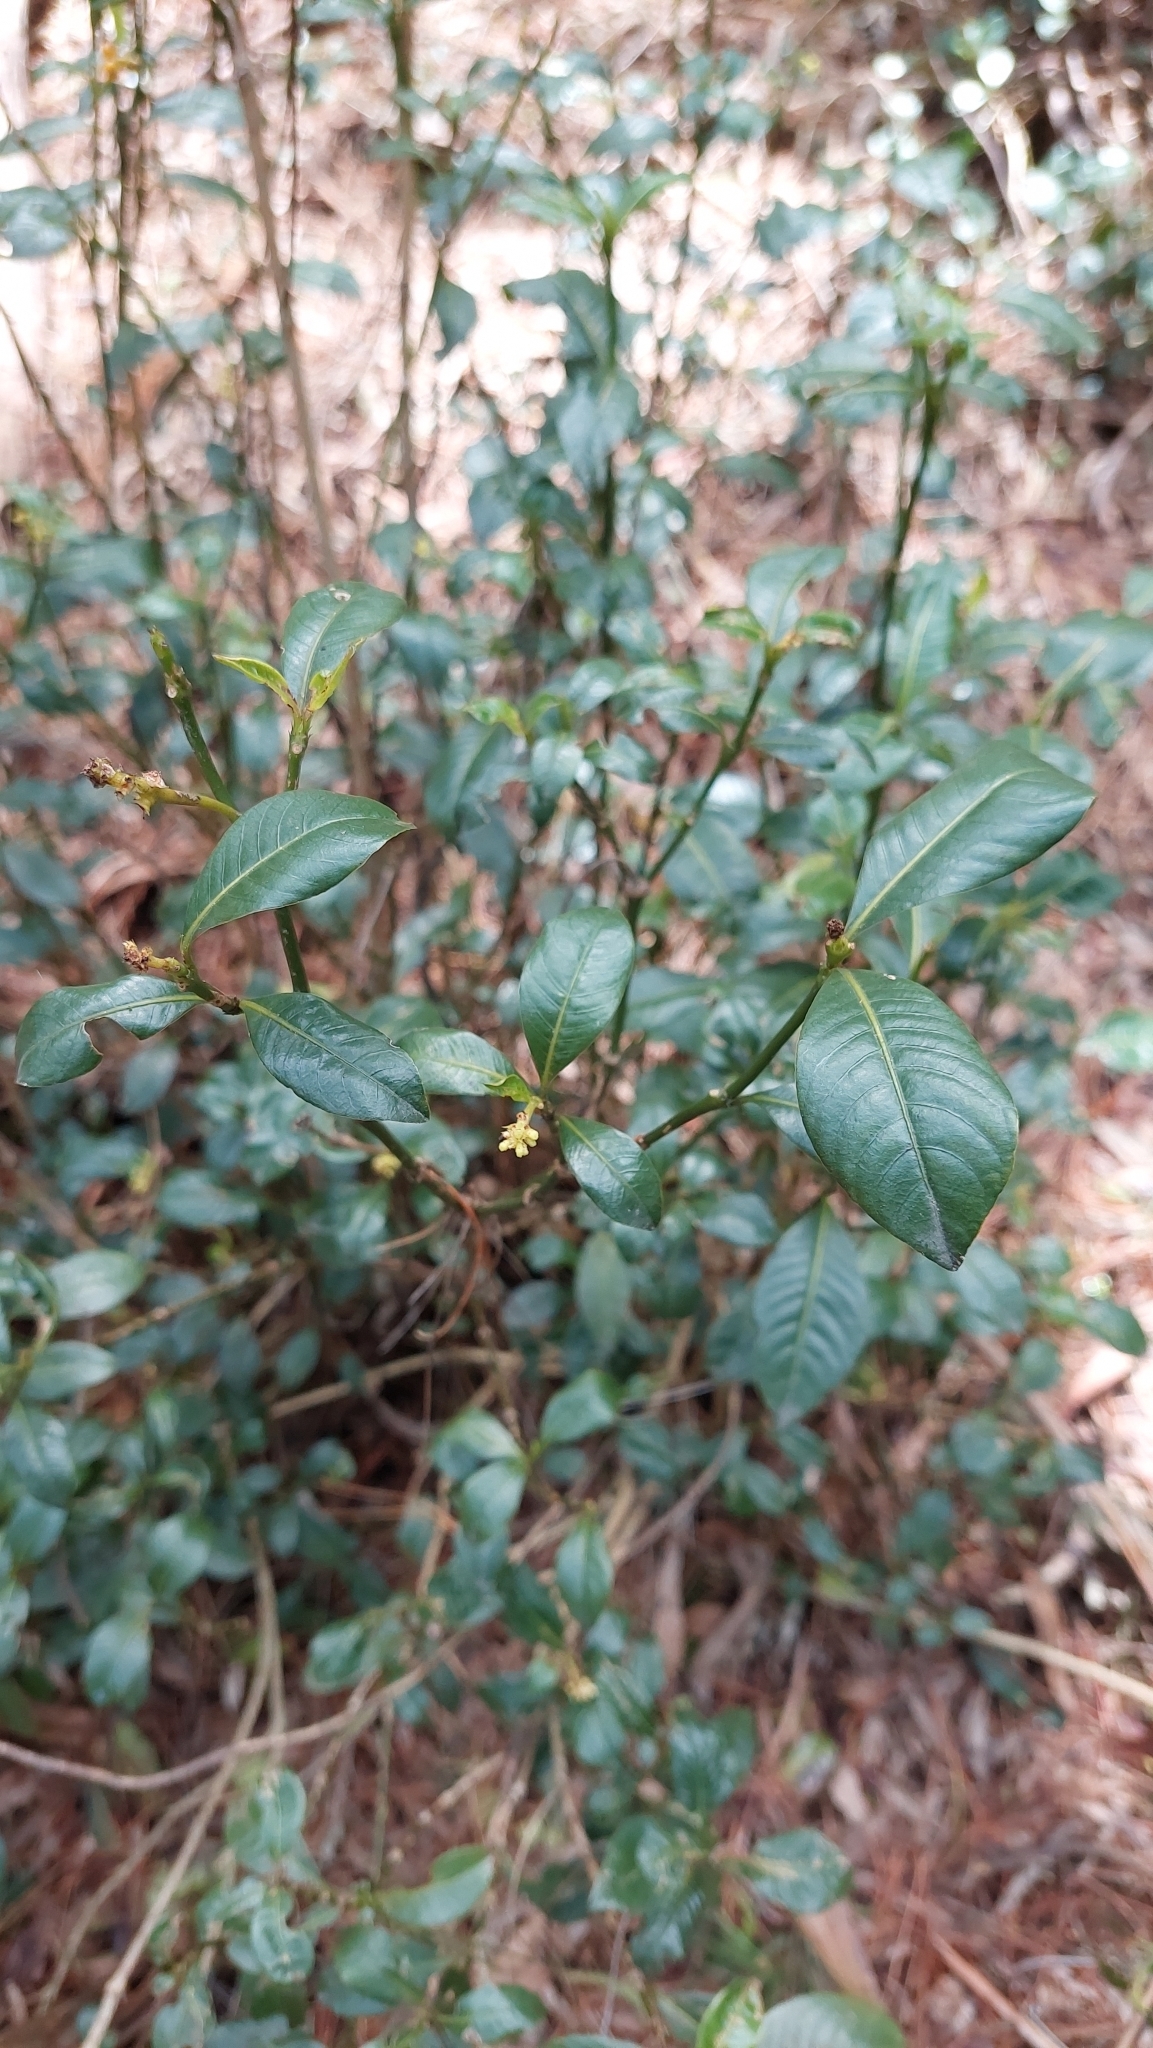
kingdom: Plantae
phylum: Tracheophyta
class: Magnoliopsida
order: Gentianales
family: Rubiaceae
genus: Palicourea
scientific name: Palicourea boqueronensis
